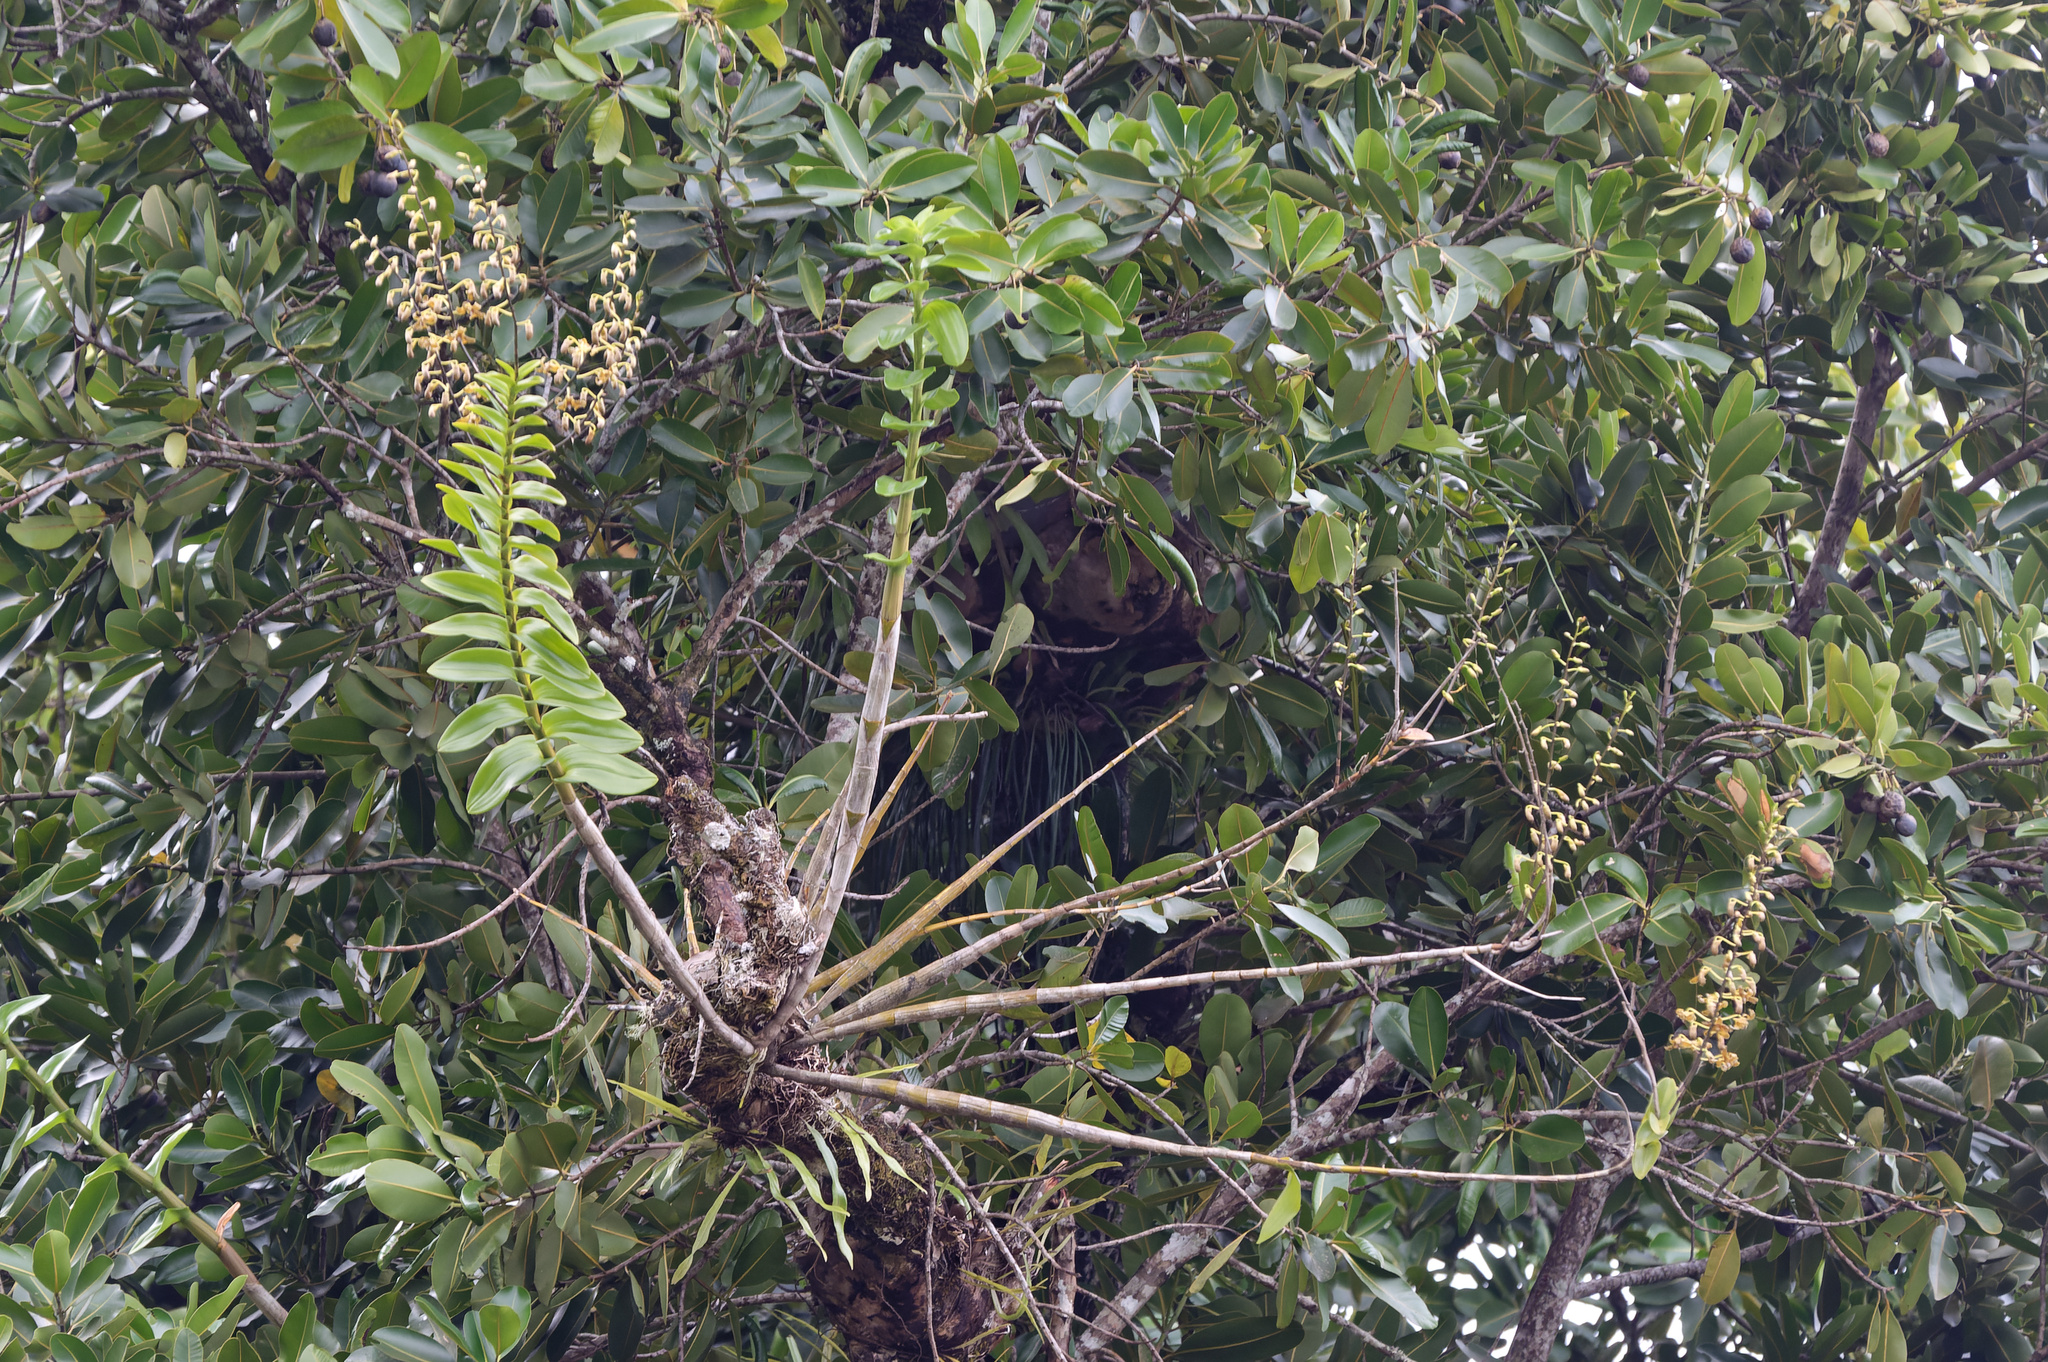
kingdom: Plantae
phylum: Tracheophyta
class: Liliopsida
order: Asparagales
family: Orchidaceae
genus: Dendrobium
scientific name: Dendrobium discolor
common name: Golden antler orchid
